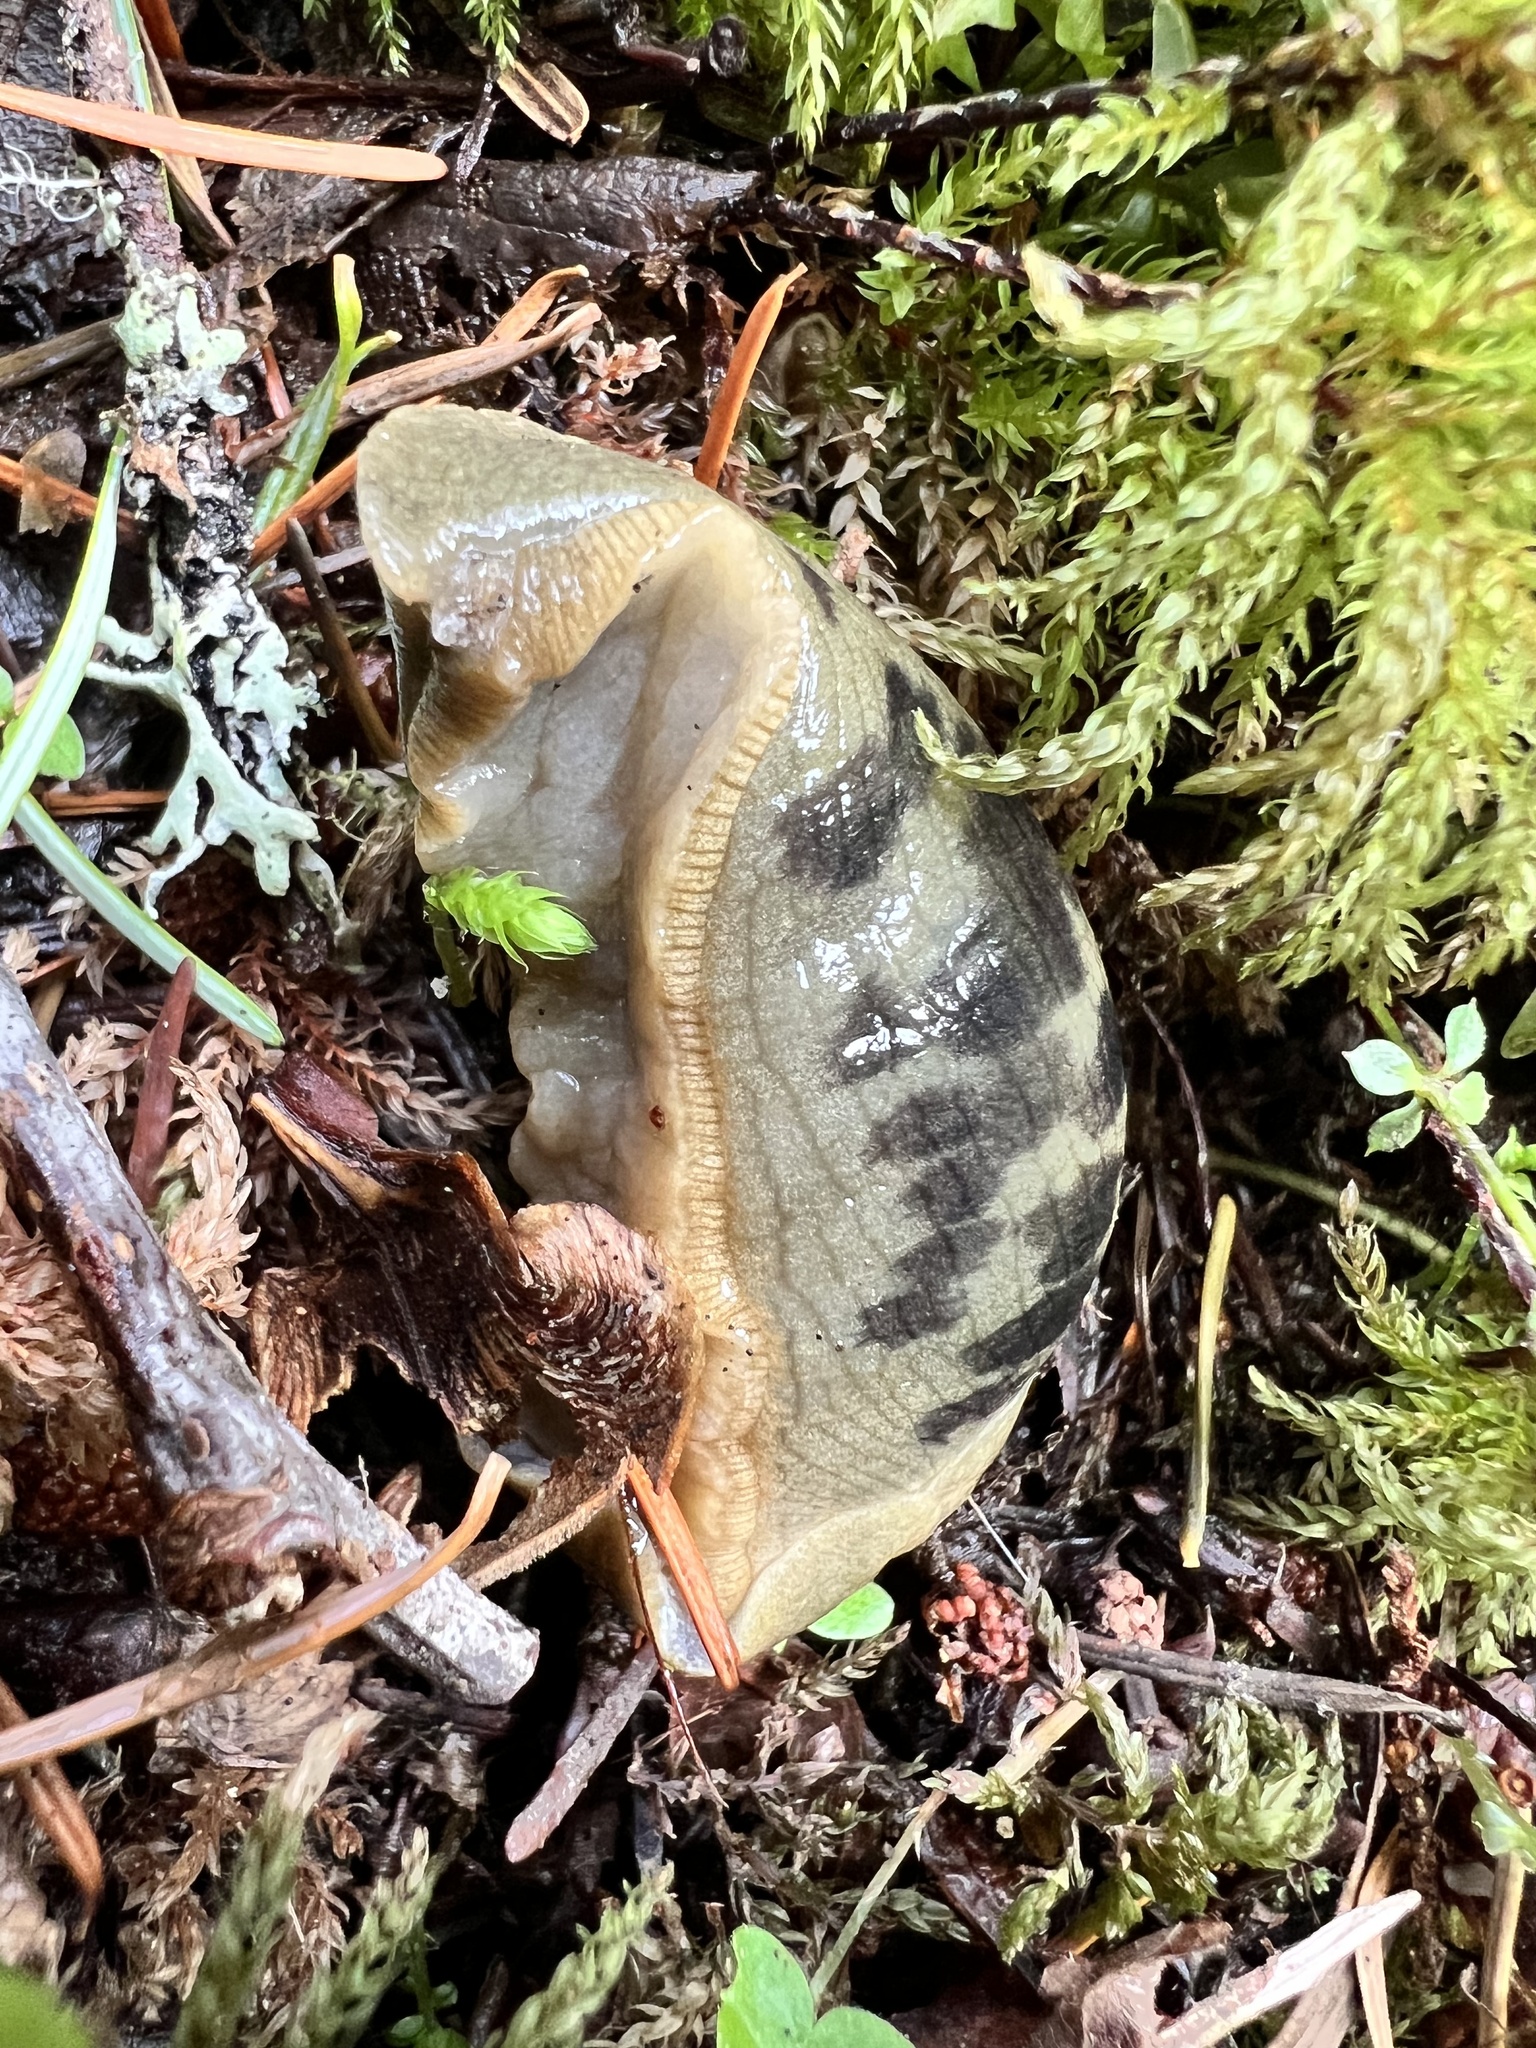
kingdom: Animalia
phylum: Mollusca
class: Gastropoda
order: Stylommatophora
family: Ariolimacidae
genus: Ariolimax
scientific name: Ariolimax columbianus
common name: Pacific banana slug
